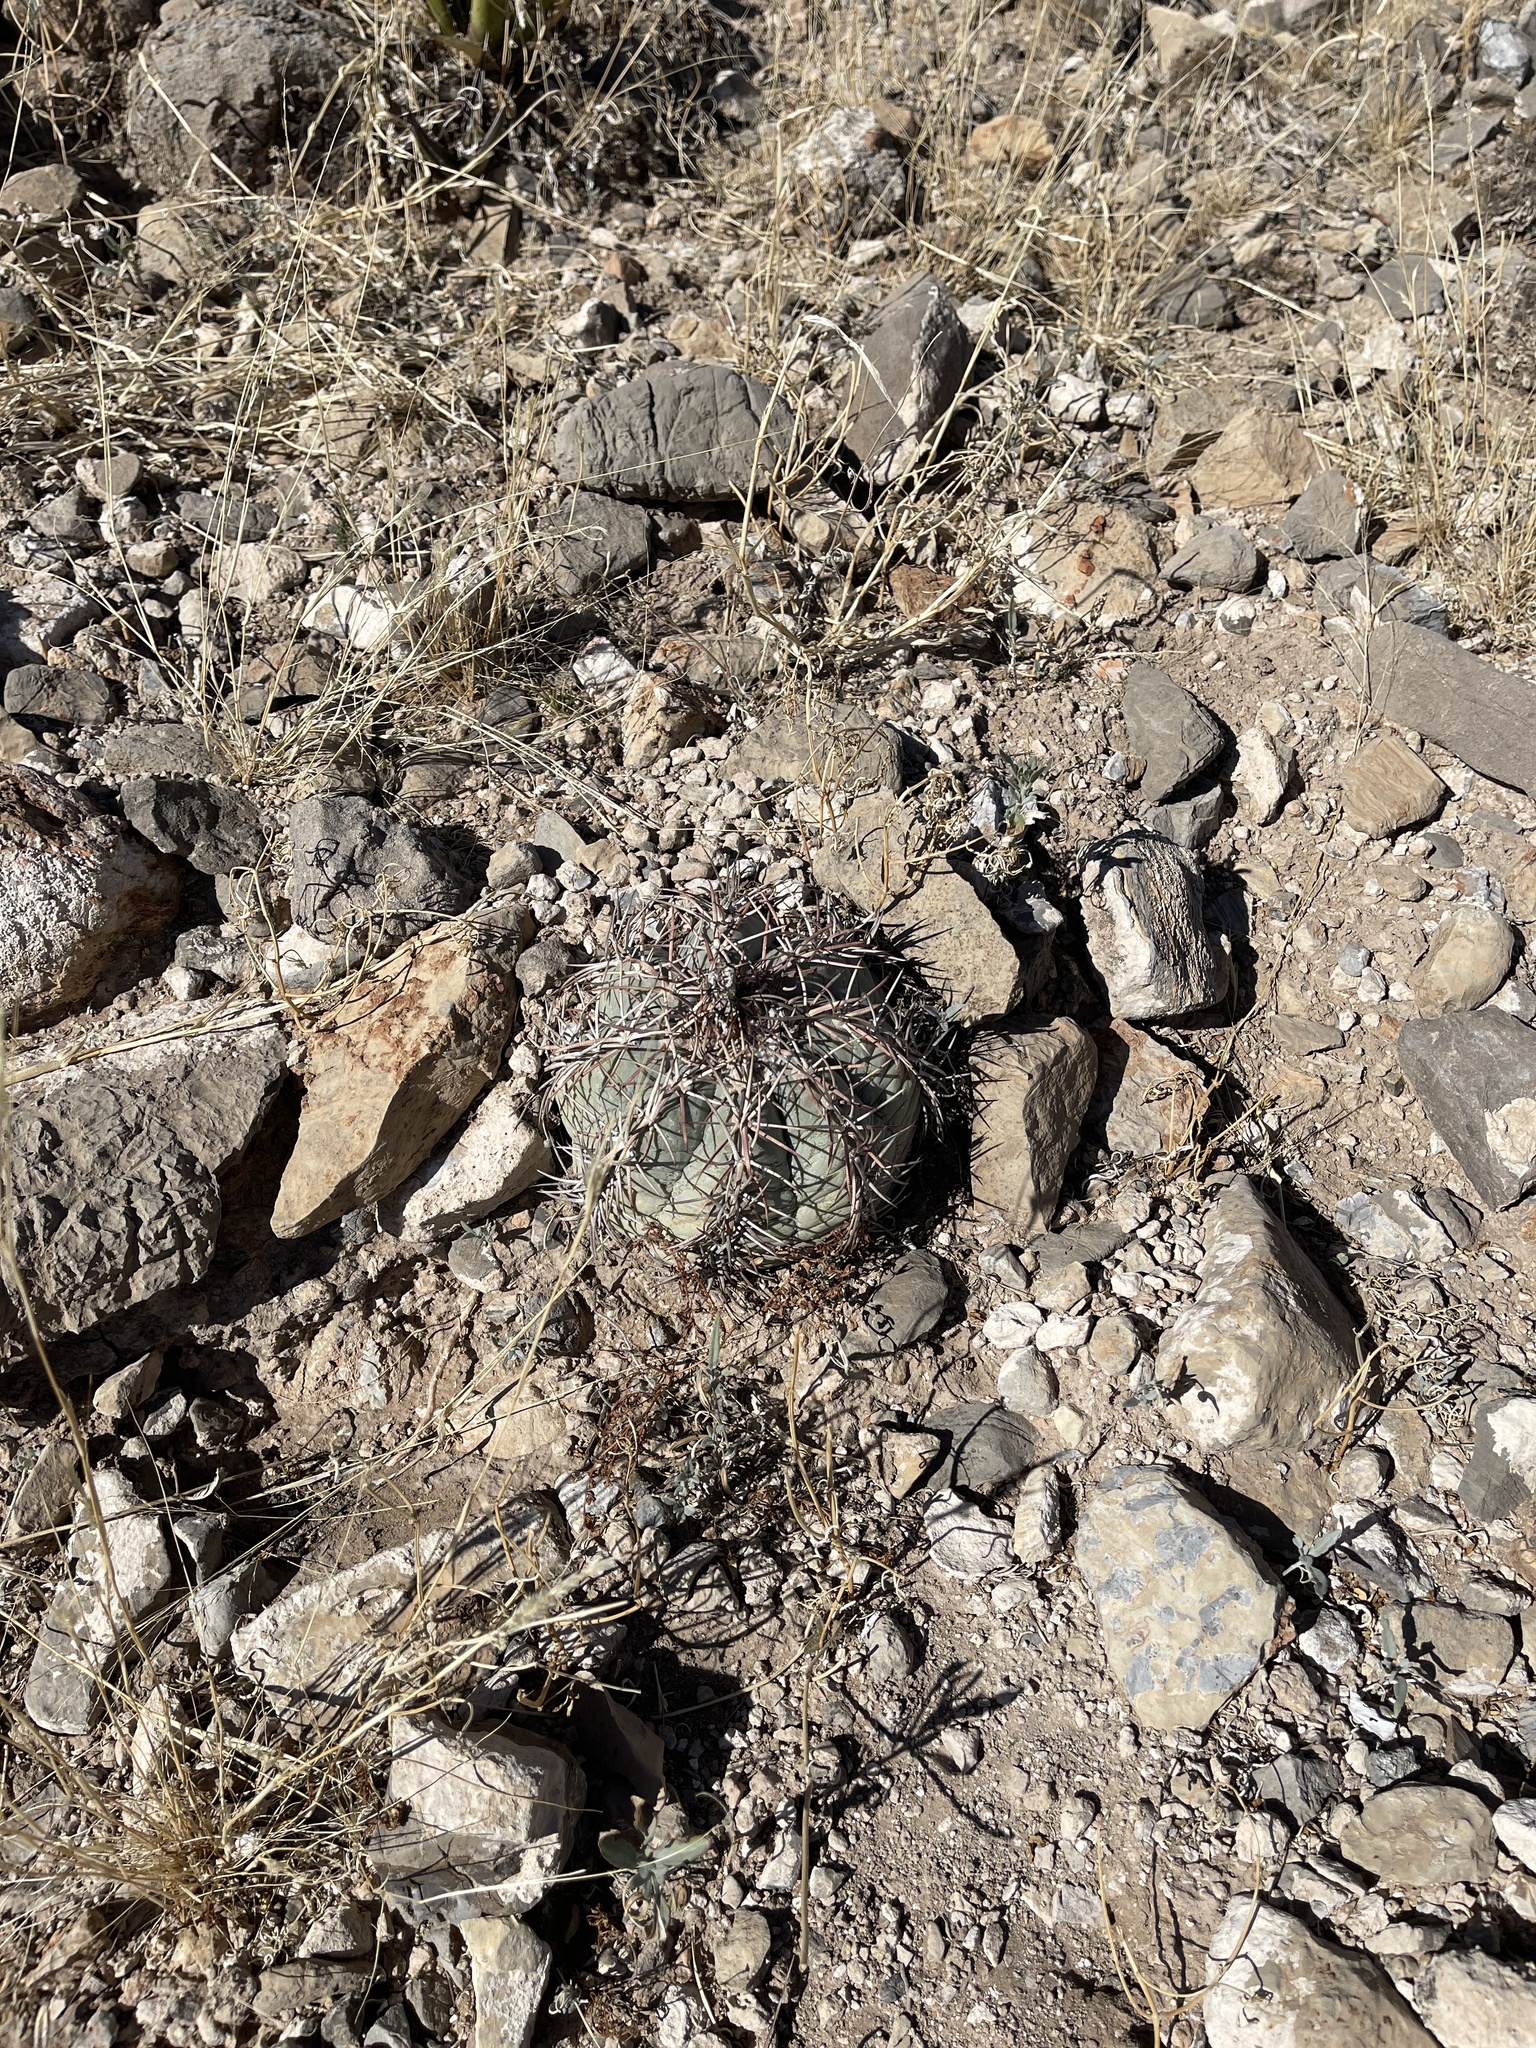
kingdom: Plantae
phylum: Tracheophyta
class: Magnoliopsida
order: Caryophyllales
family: Cactaceae
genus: Echinocactus
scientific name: Echinocactus horizonthalonius
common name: Devilshead
